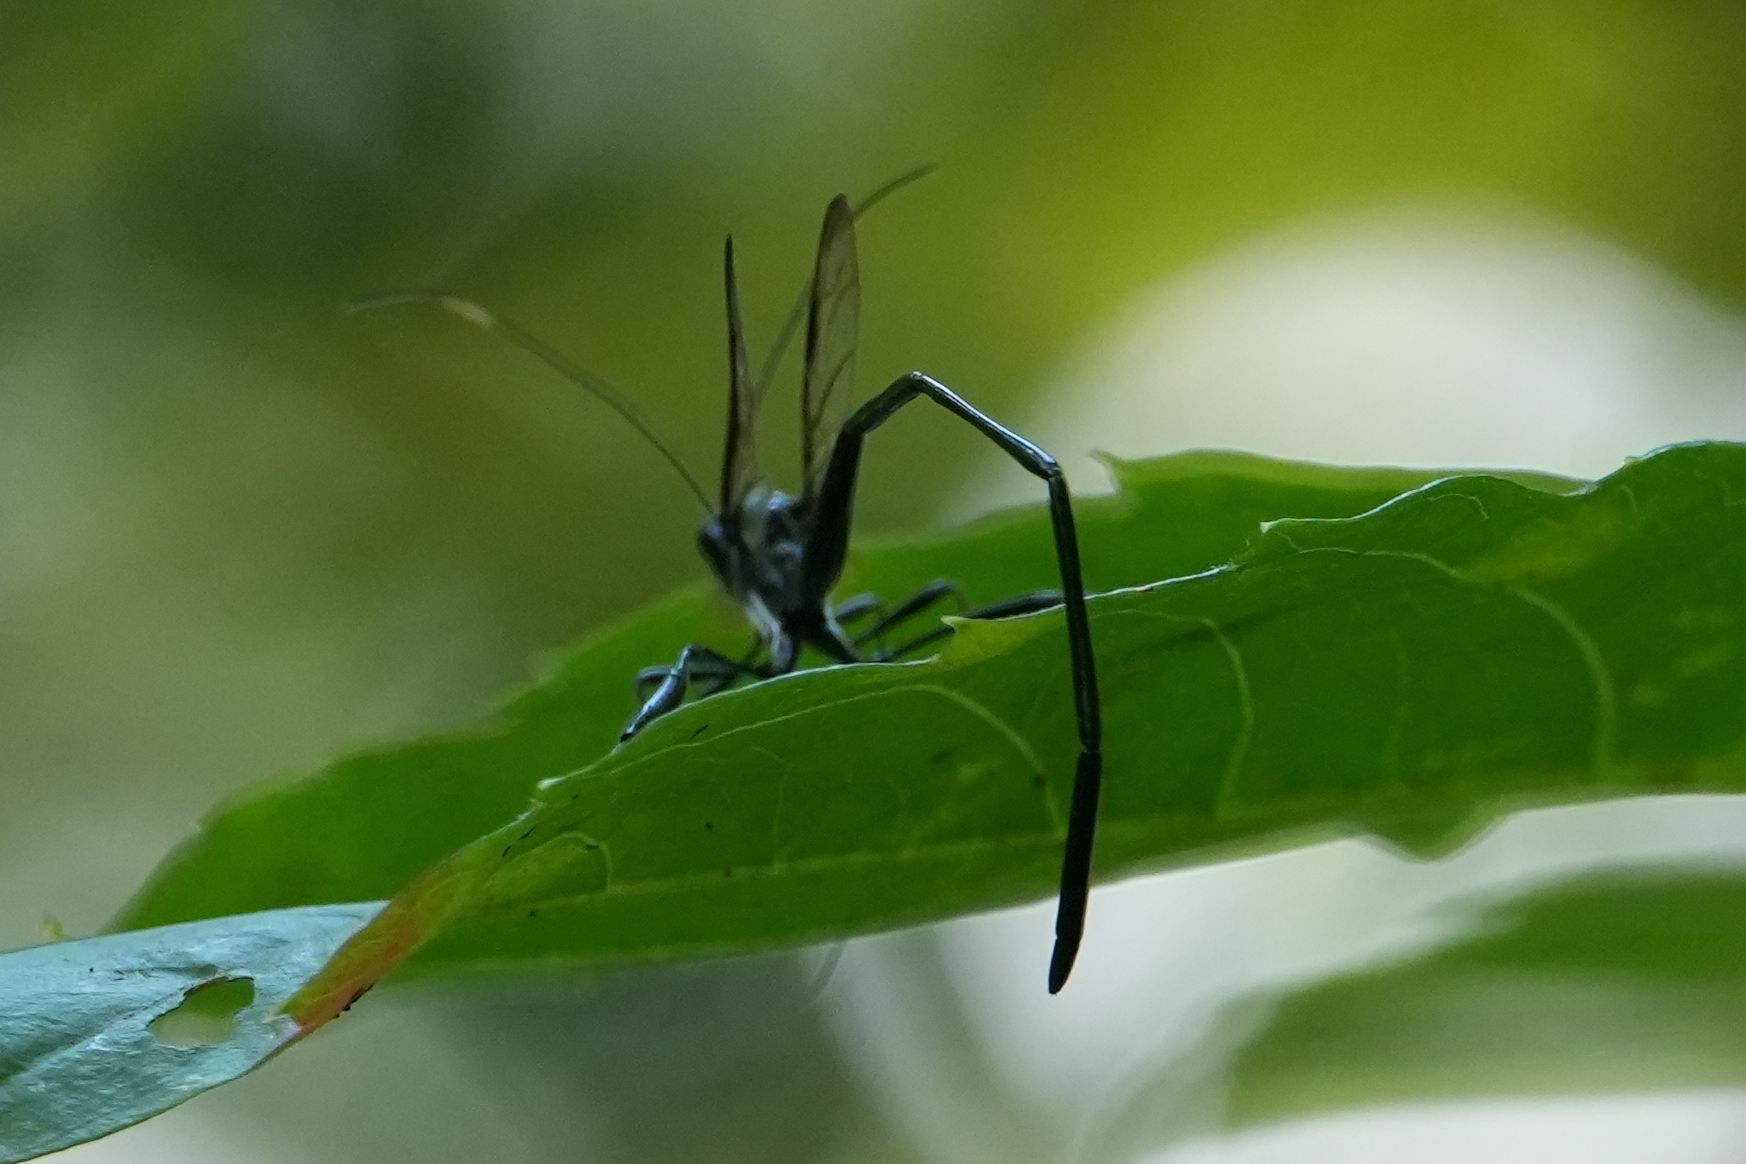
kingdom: Animalia
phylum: Arthropoda
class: Insecta
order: Hymenoptera
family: Pelecinidae
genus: Pelecinus
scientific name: Pelecinus polyturator
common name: American pelecinid wasp
